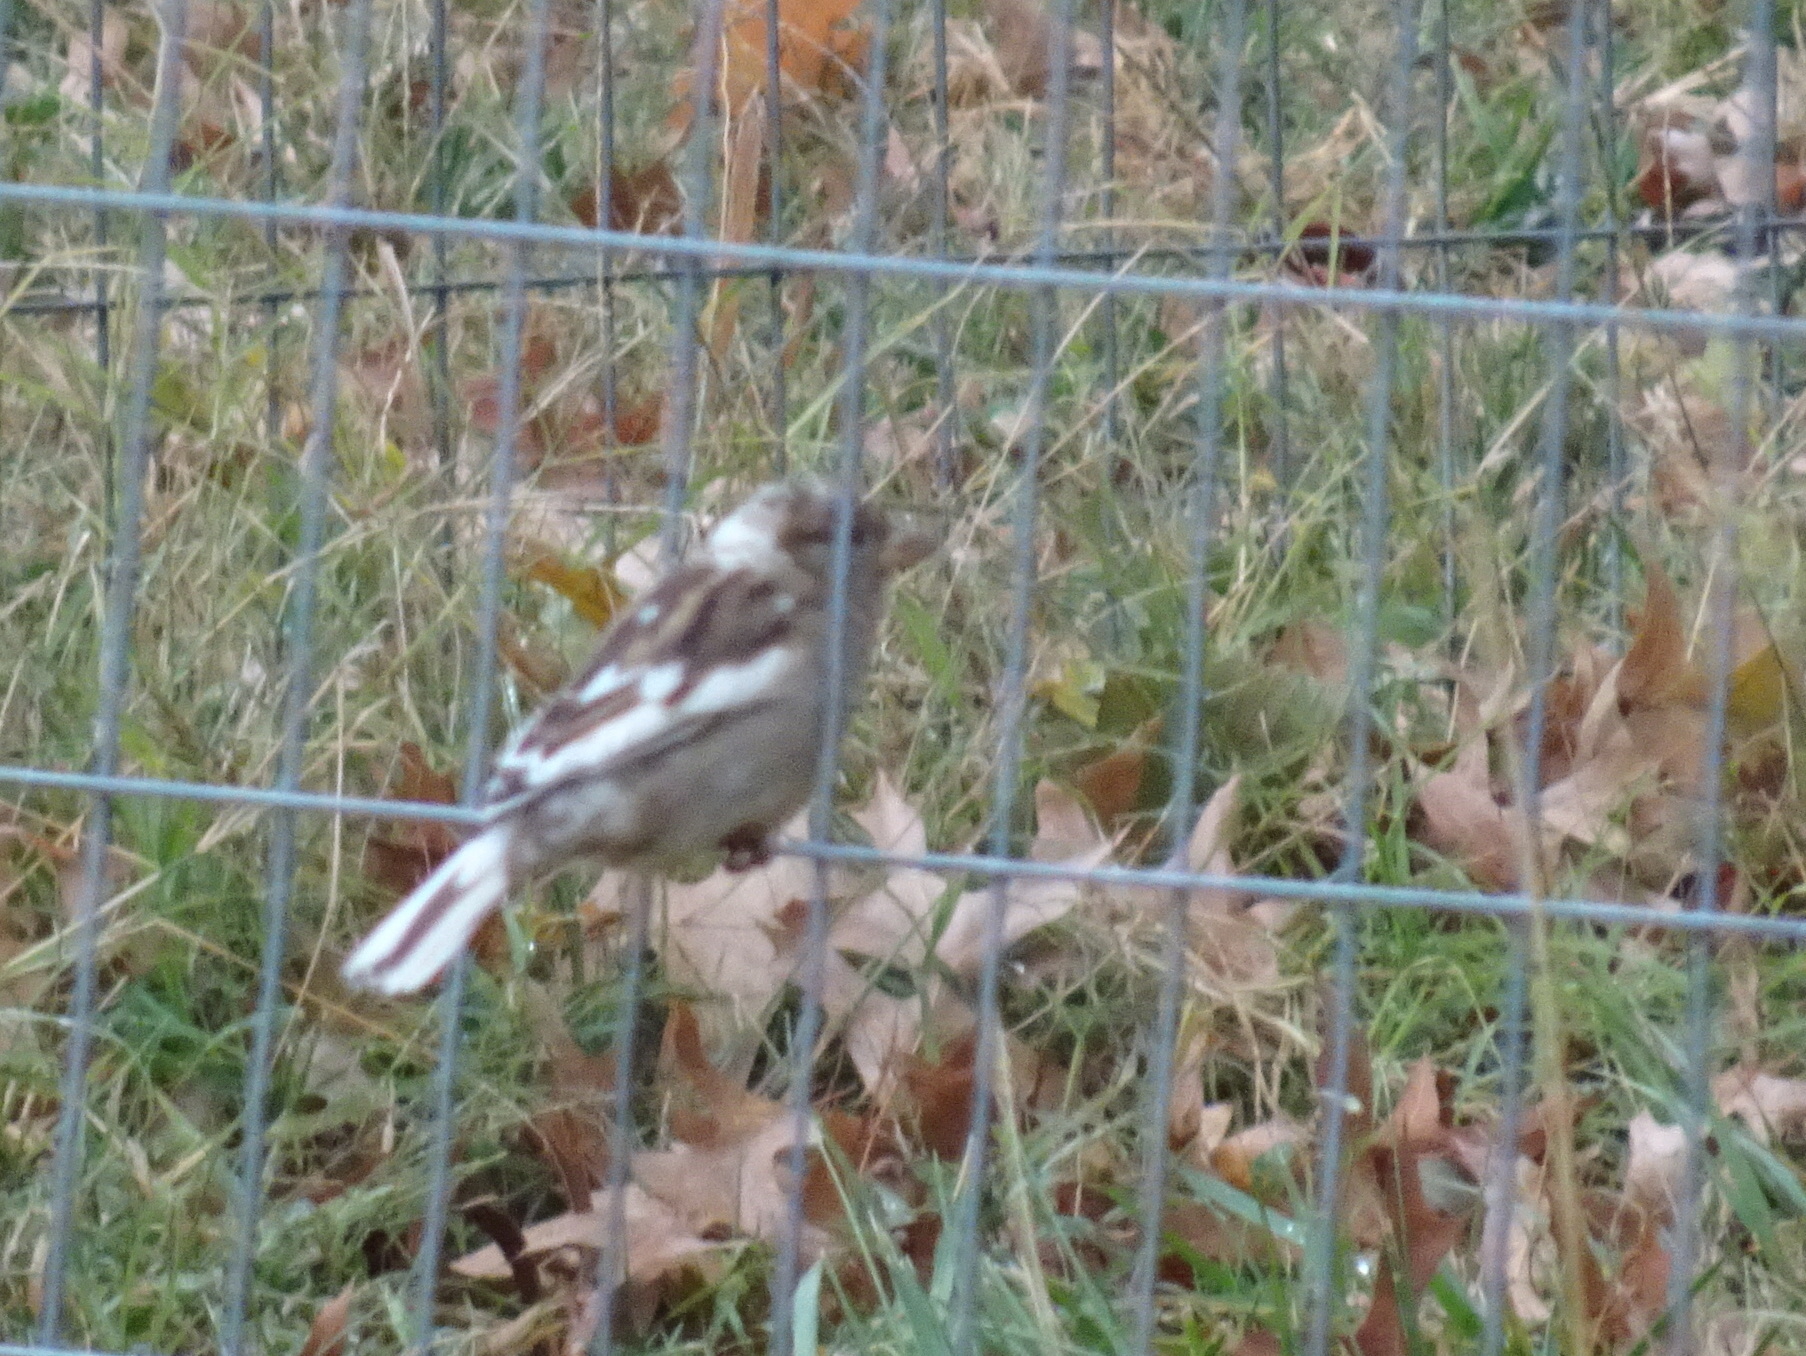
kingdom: Animalia
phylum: Chordata
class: Aves
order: Passeriformes
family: Passeridae
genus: Passer
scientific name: Passer domesticus
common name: House sparrow
